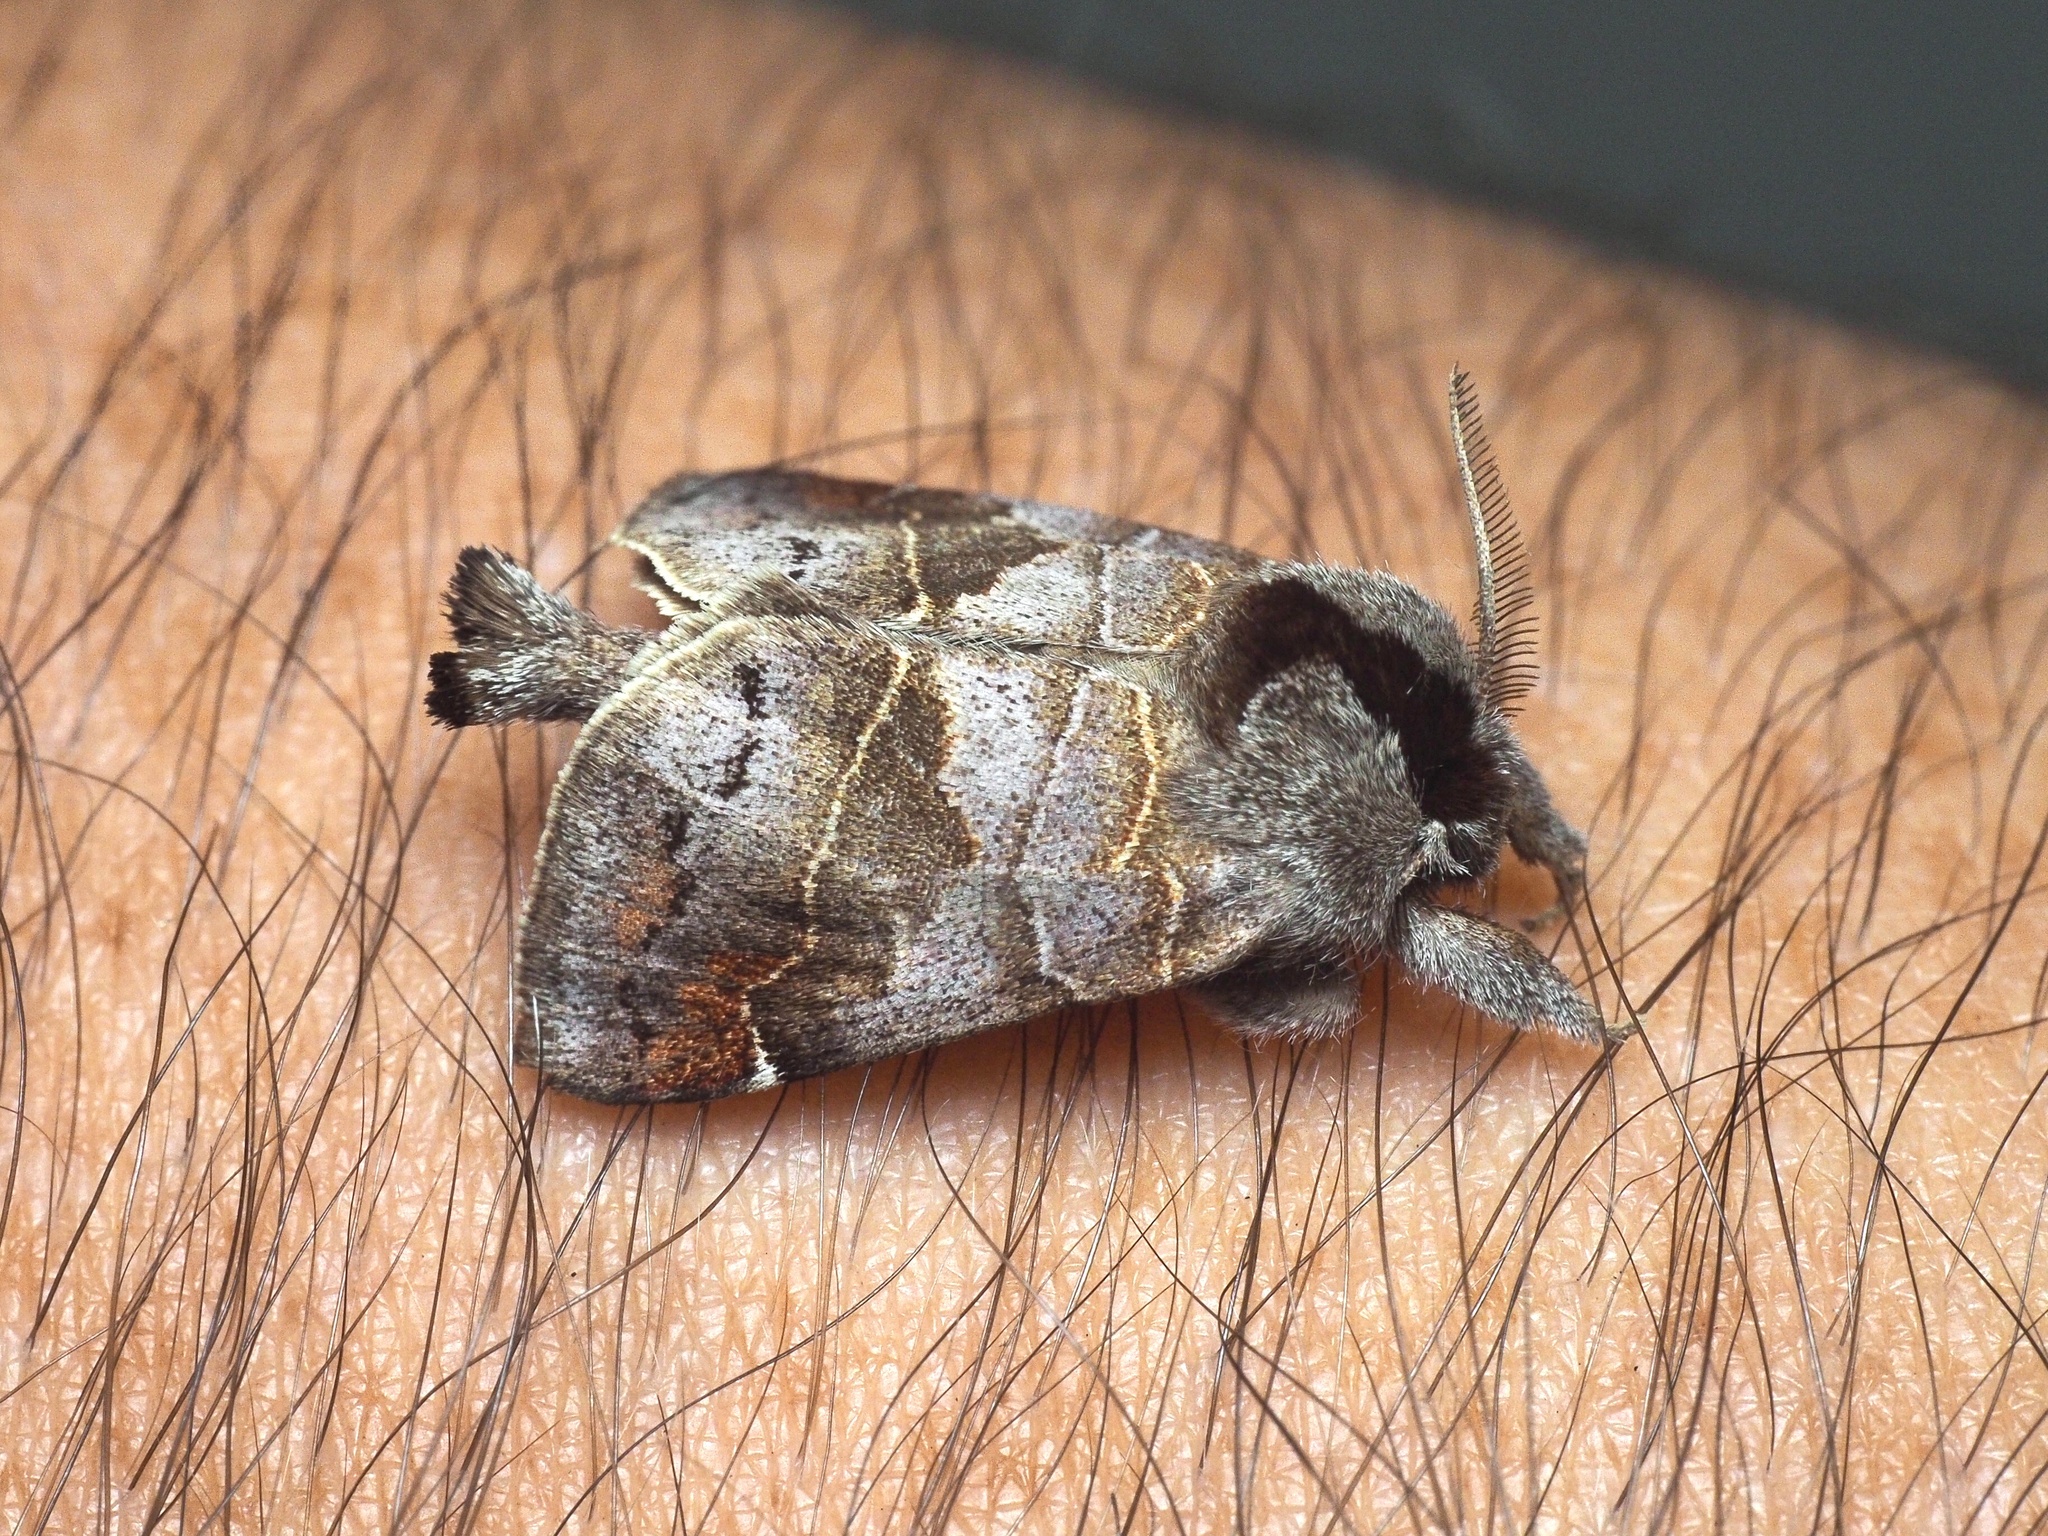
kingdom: Animalia
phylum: Arthropoda
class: Insecta
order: Lepidoptera
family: Notodontidae
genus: Clostera
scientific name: Clostera pigra
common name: Small chocolate-tip
